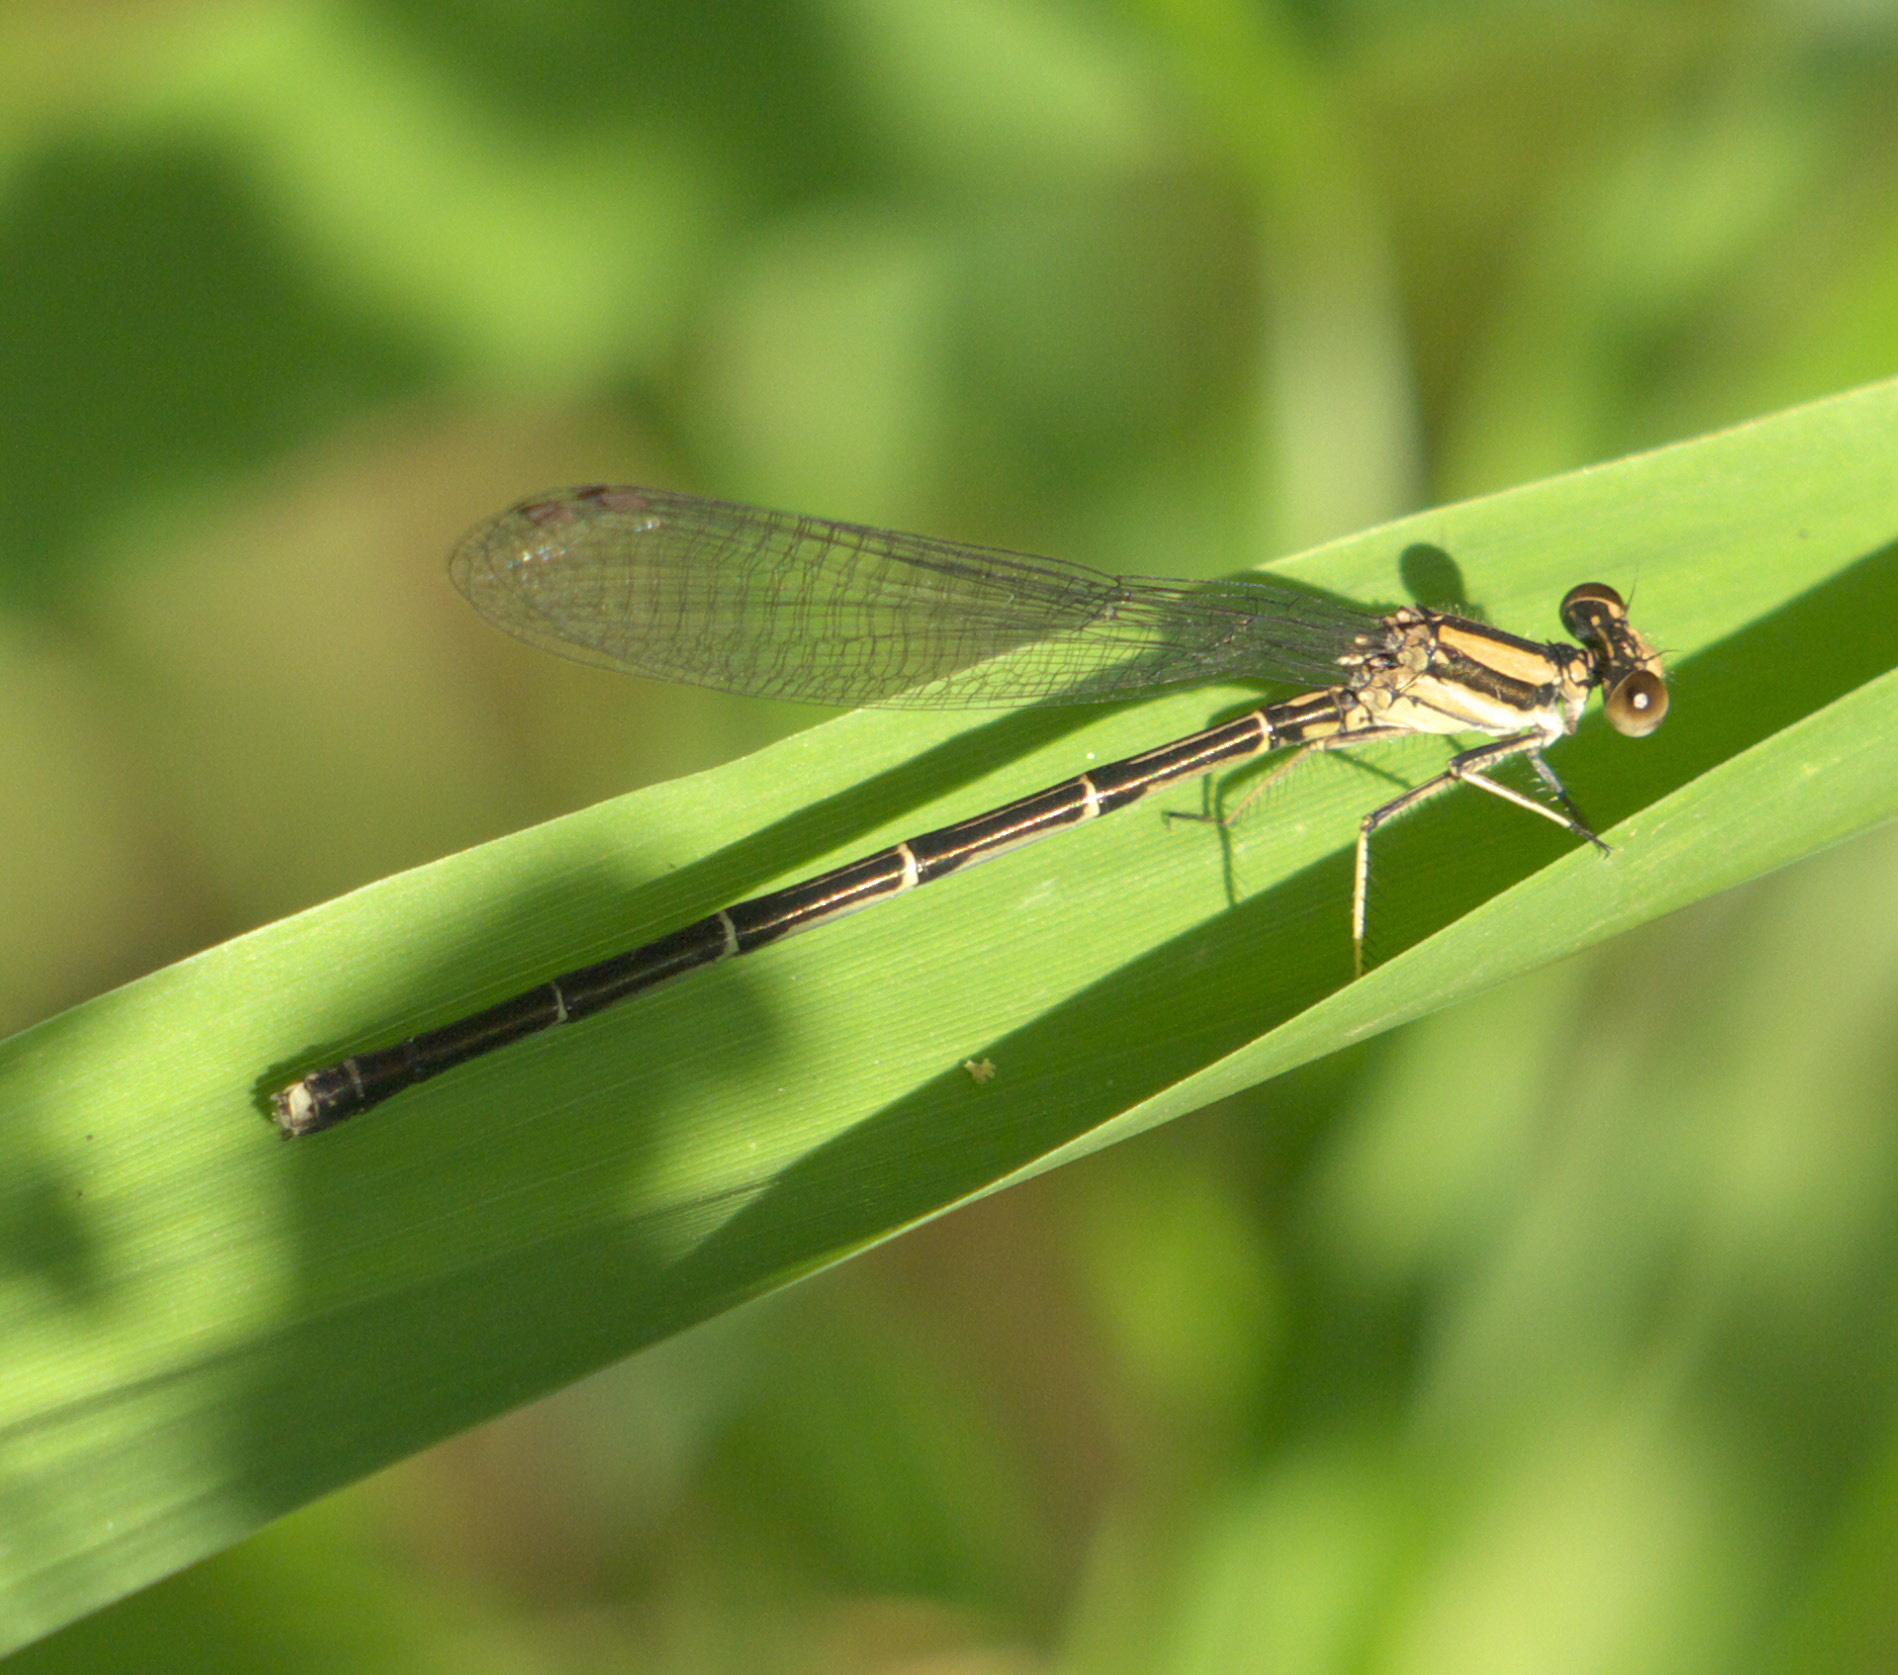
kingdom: Animalia
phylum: Arthropoda
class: Insecta
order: Odonata
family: Coenagrionidae
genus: Argia
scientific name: Argia tibialis
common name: Blue-tipped dancer
